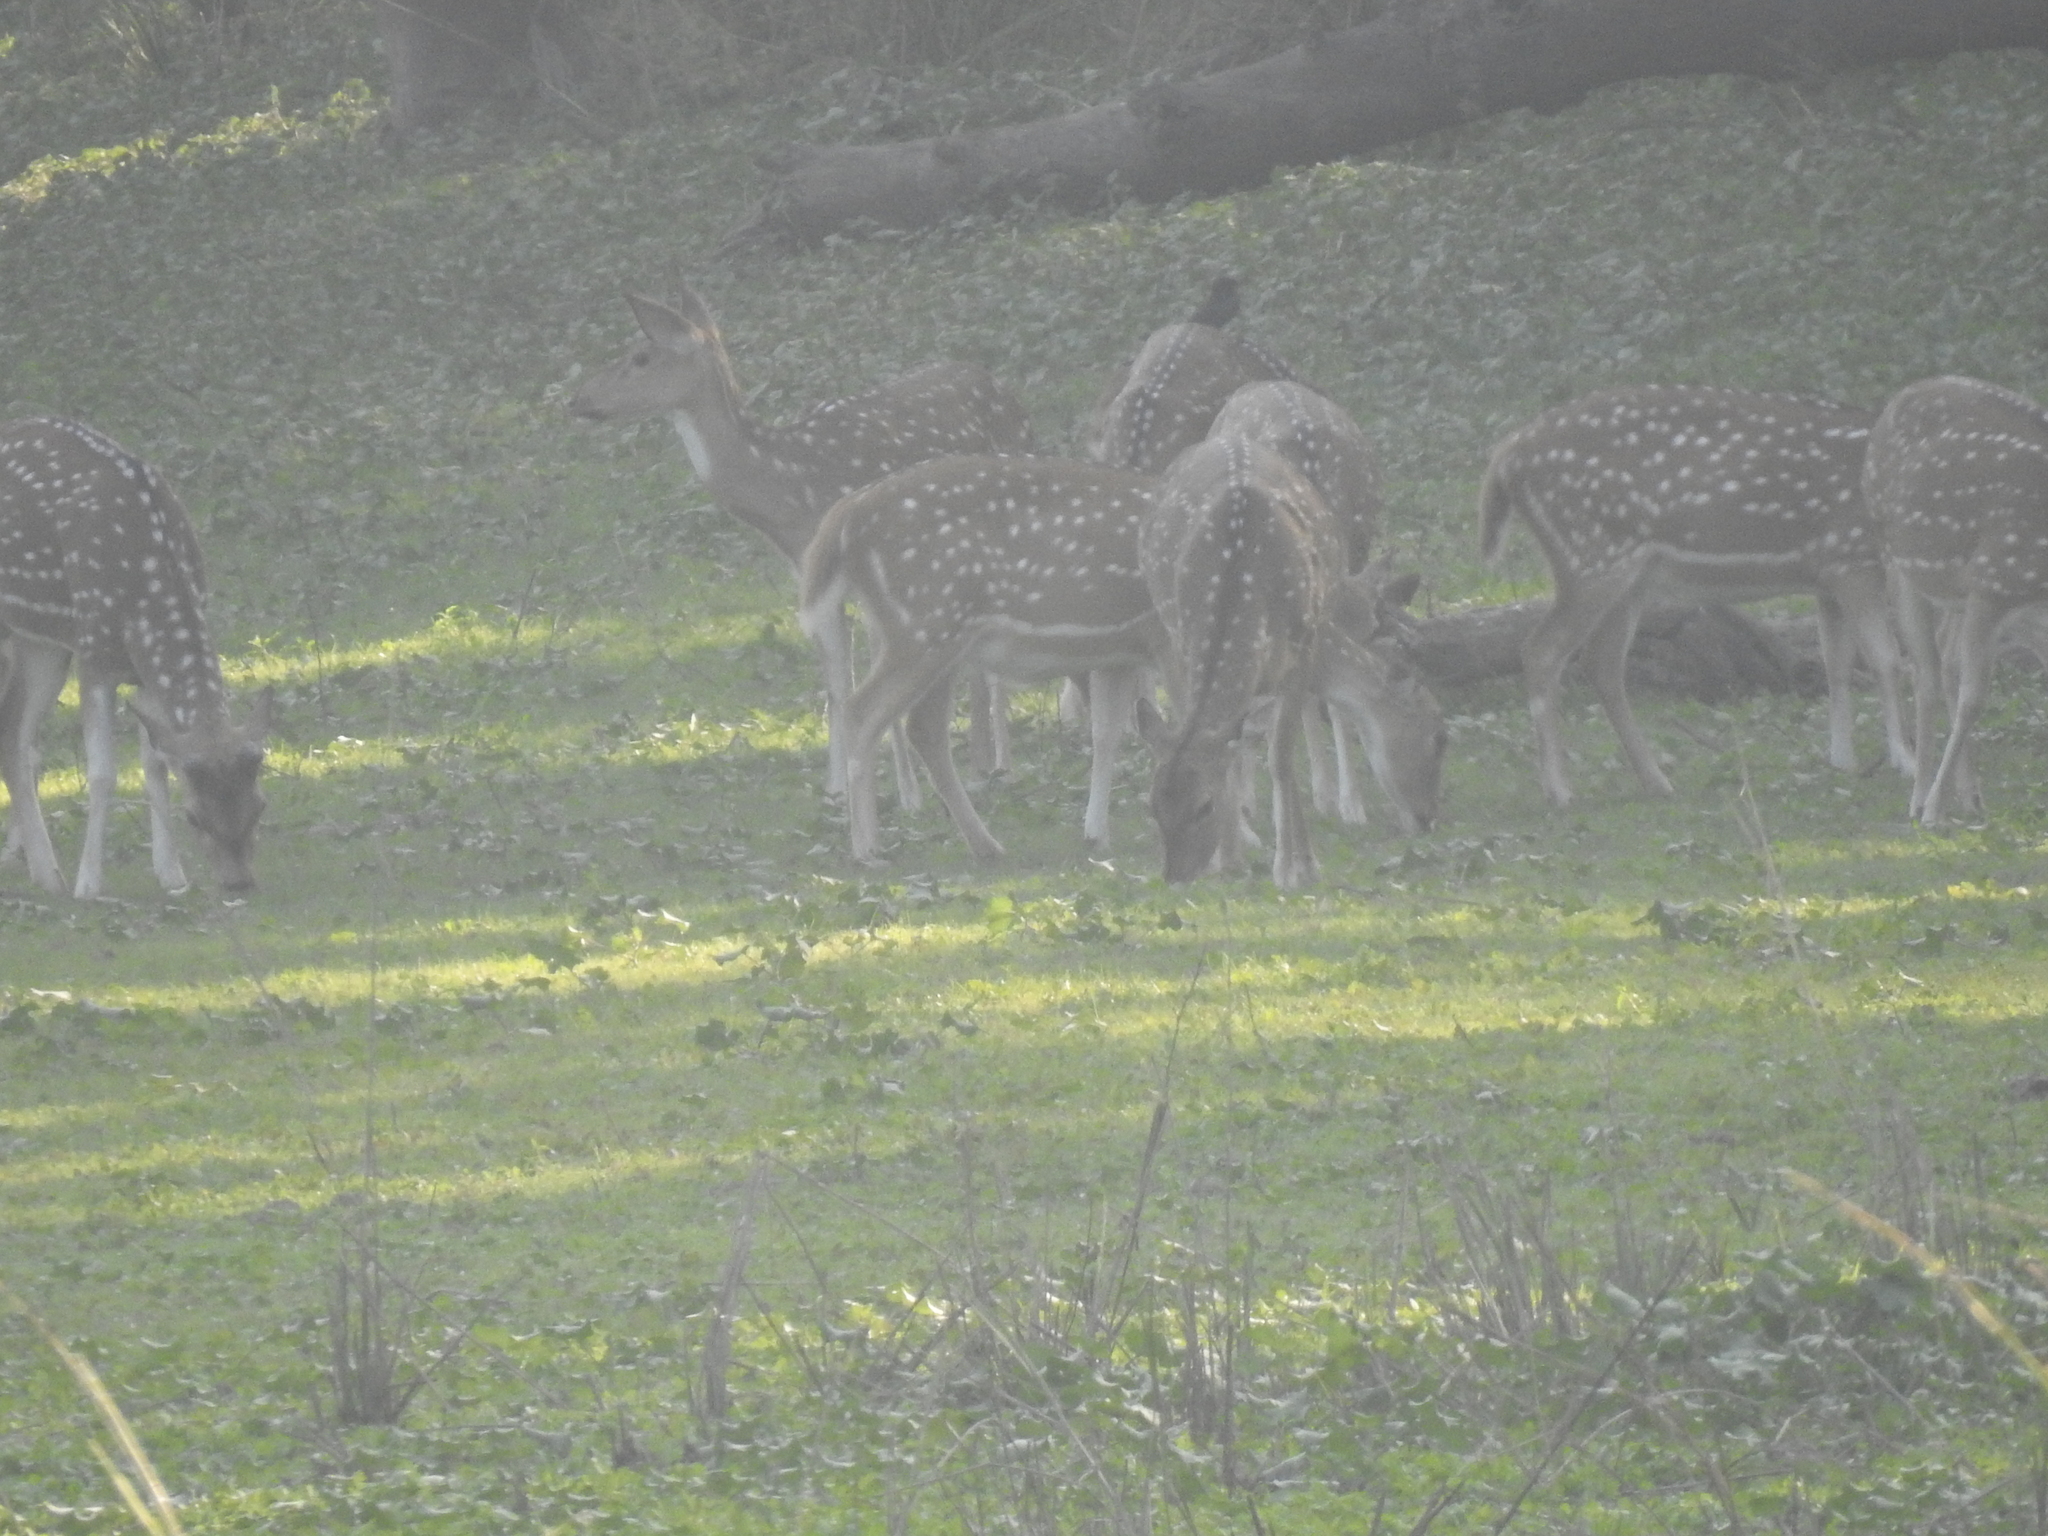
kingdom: Animalia
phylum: Chordata
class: Mammalia
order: Artiodactyla
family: Cervidae
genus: Axis
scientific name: Axis axis
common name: Chital
